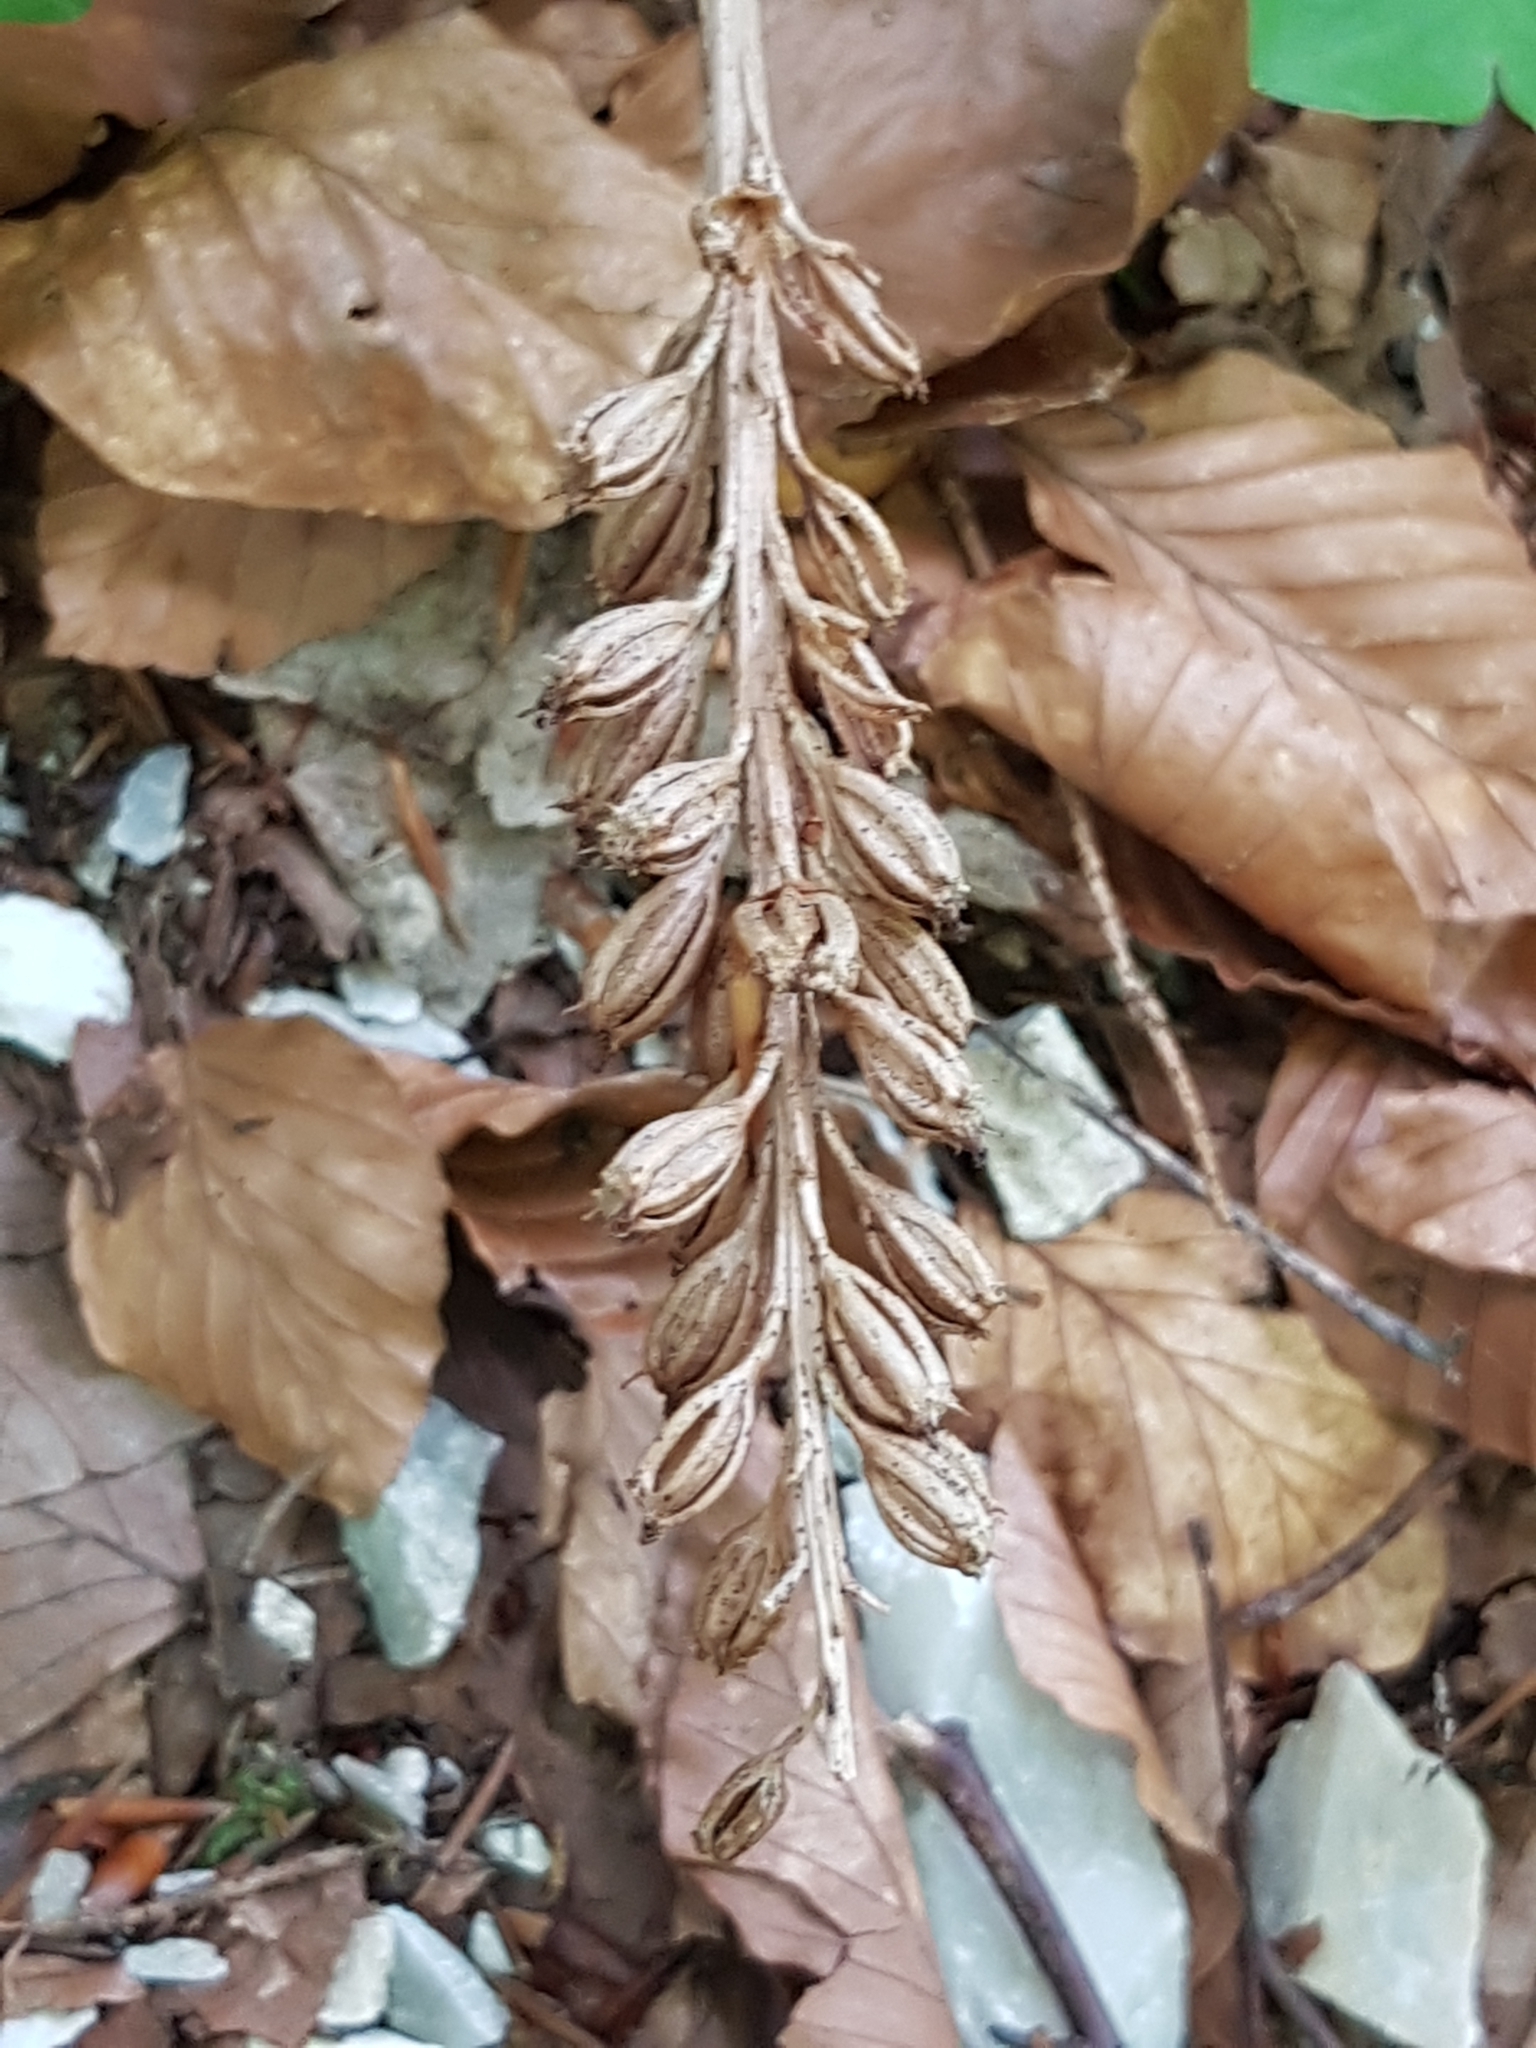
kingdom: Plantae
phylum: Tracheophyta
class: Liliopsida
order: Asparagales
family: Orchidaceae
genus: Neottia
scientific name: Neottia nidus-avis
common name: Bird's-nest orchid
